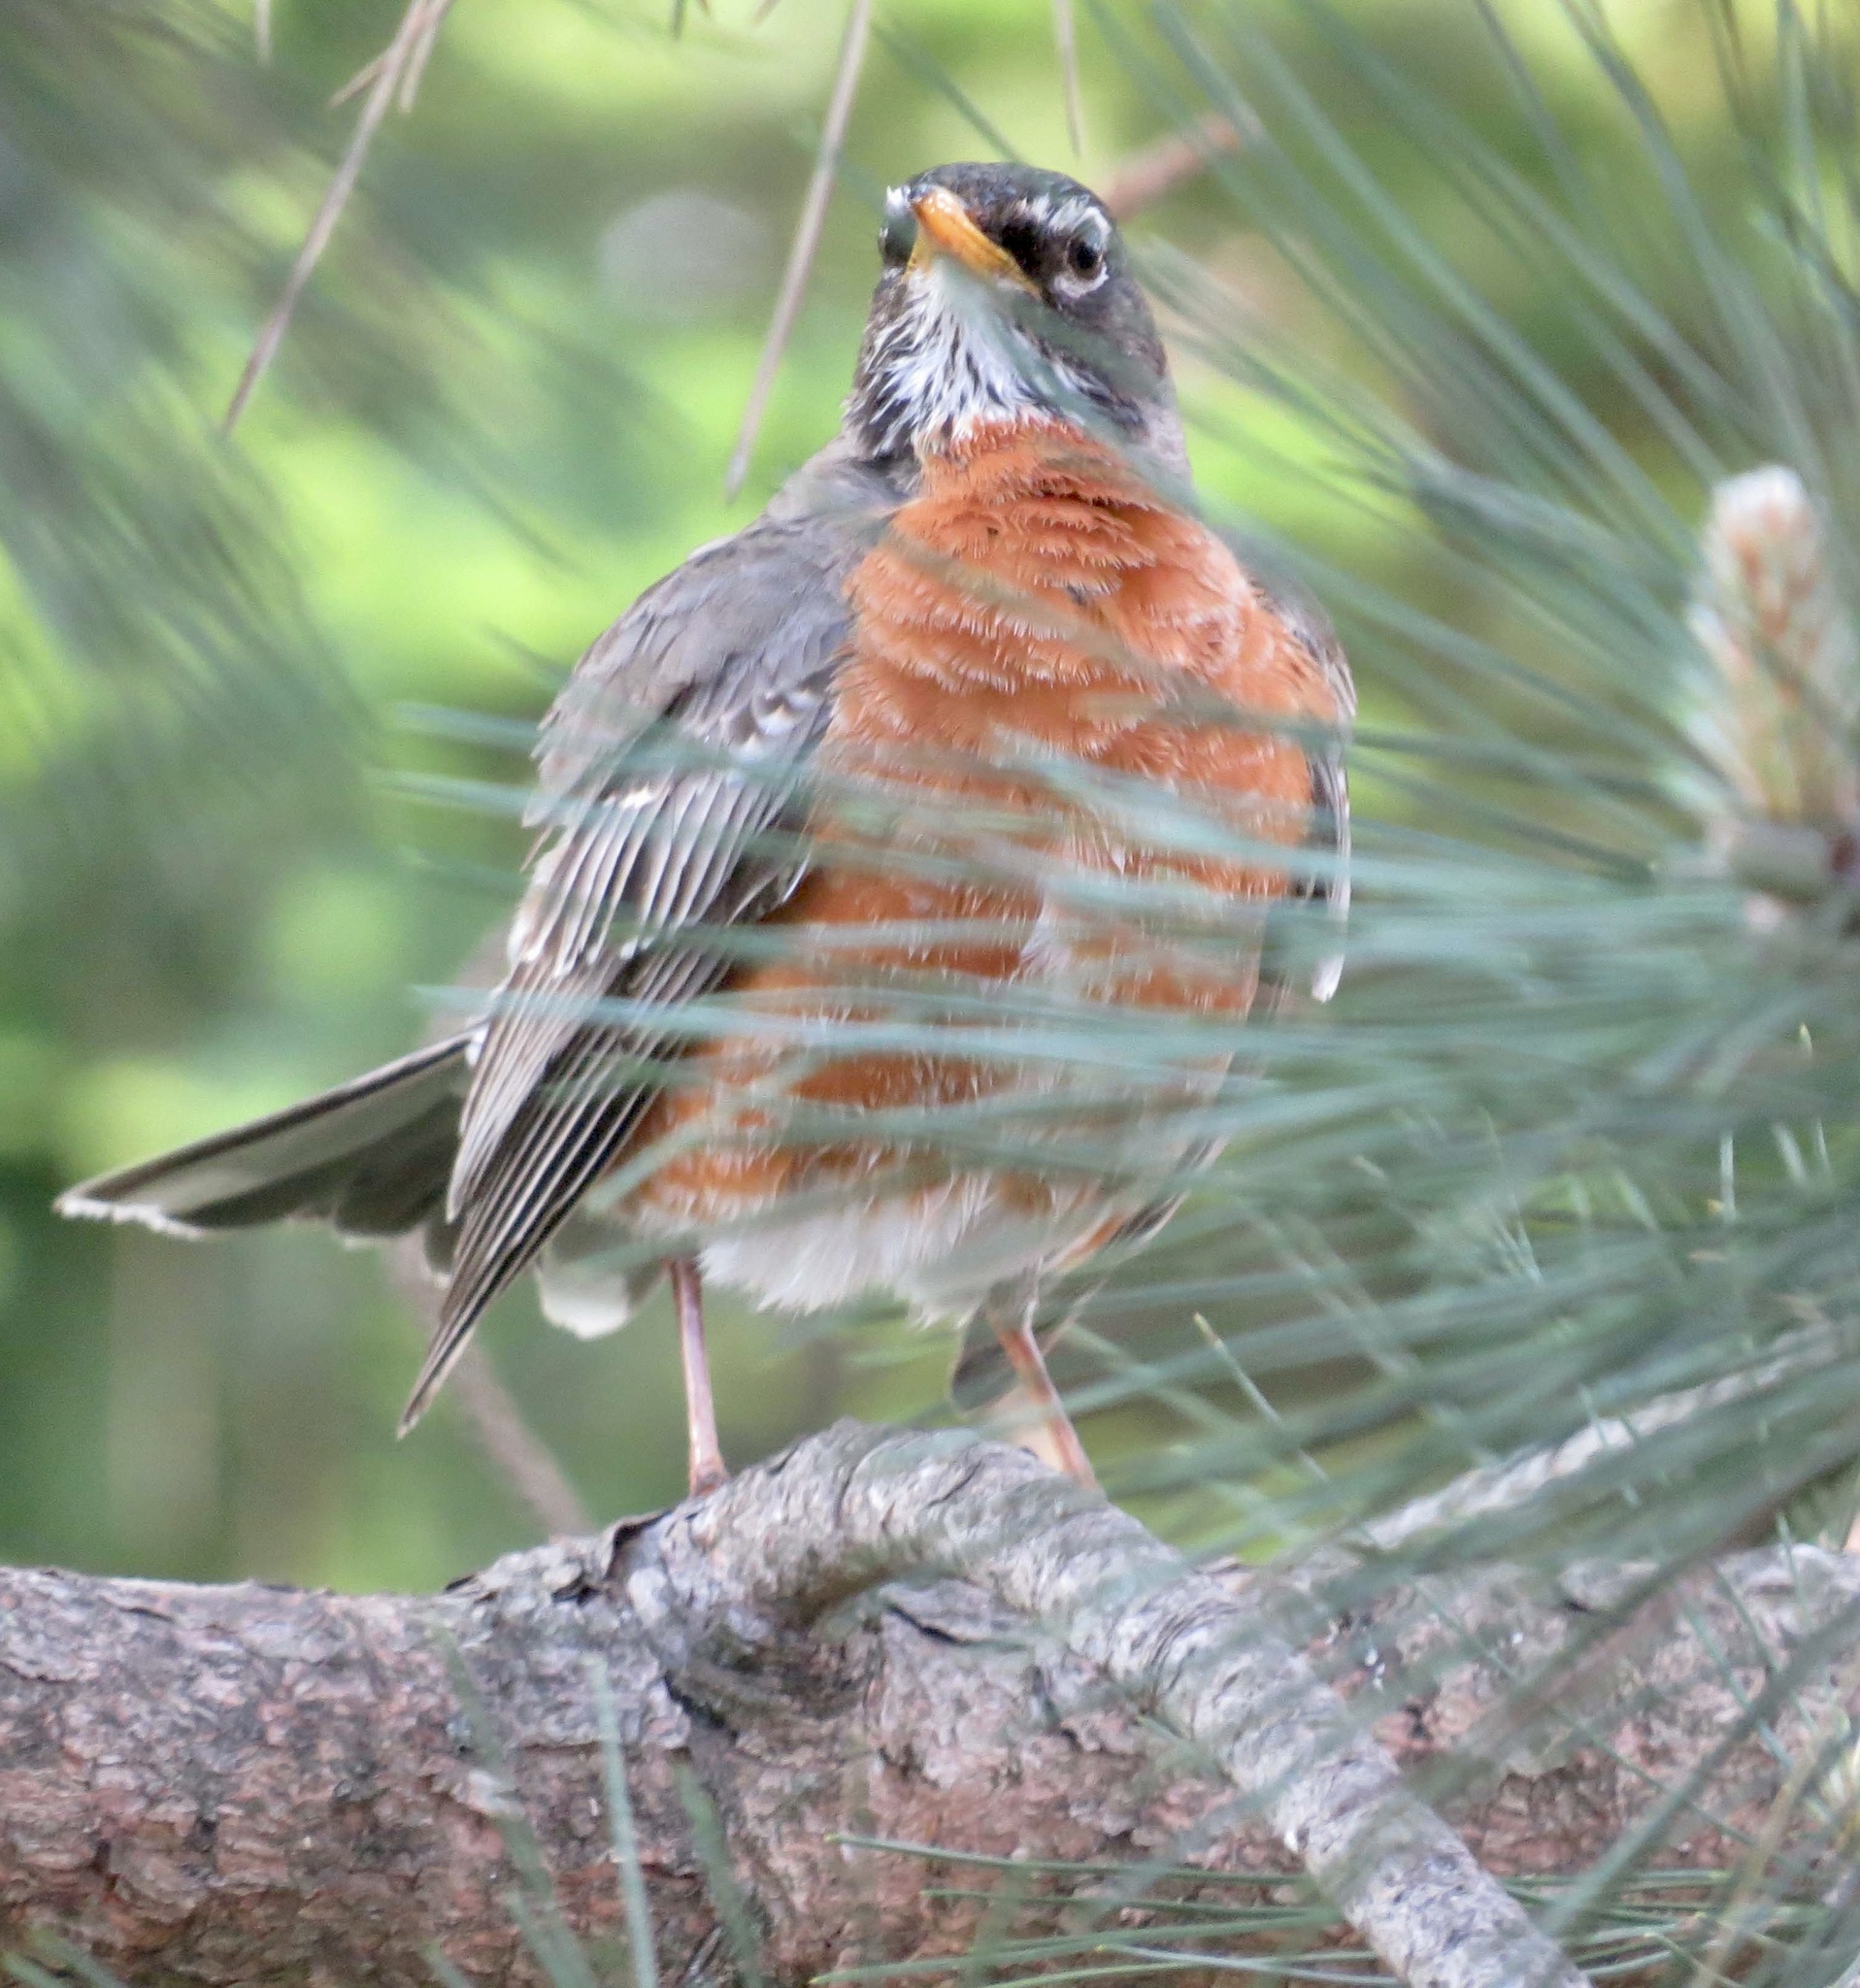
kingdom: Animalia
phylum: Chordata
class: Aves
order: Passeriformes
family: Turdidae
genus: Turdus
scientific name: Turdus migratorius
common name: American robin
